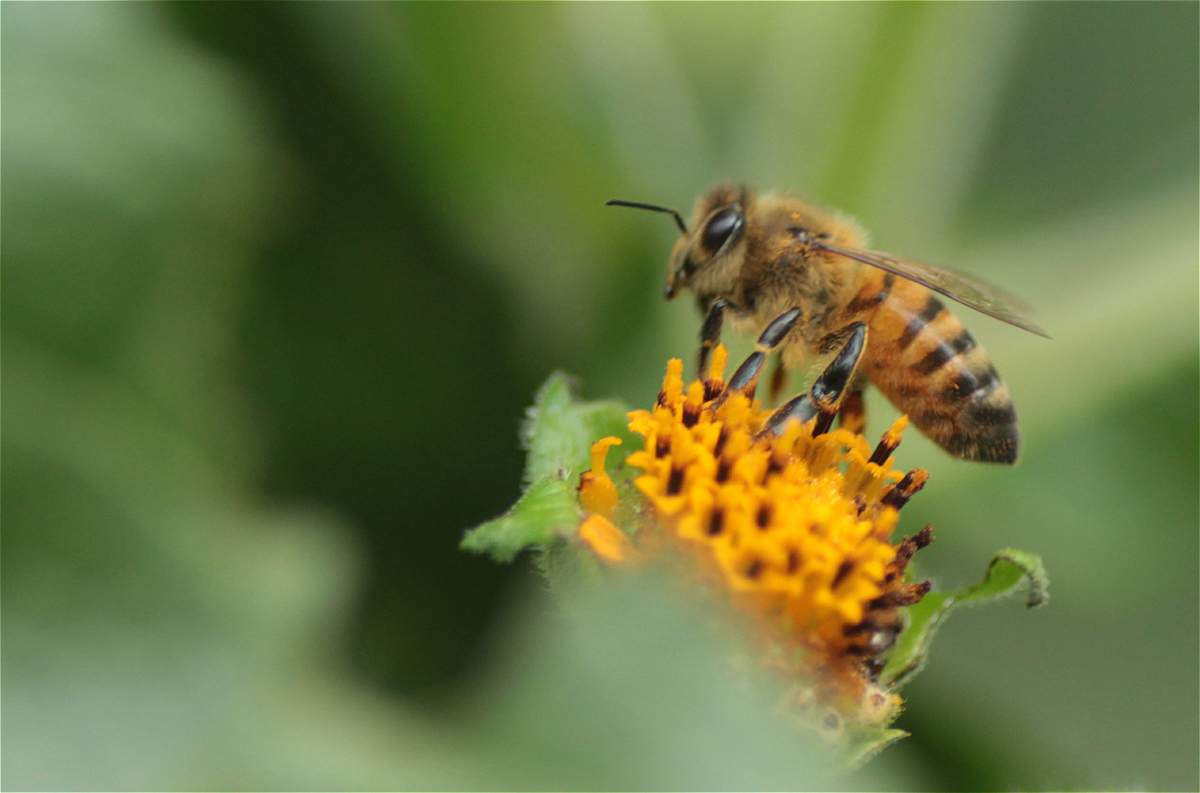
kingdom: Animalia
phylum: Arthropoda
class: Insecta
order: Hymenoptera
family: Apidae
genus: Apis
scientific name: Apis mellifera
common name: Honey bee
